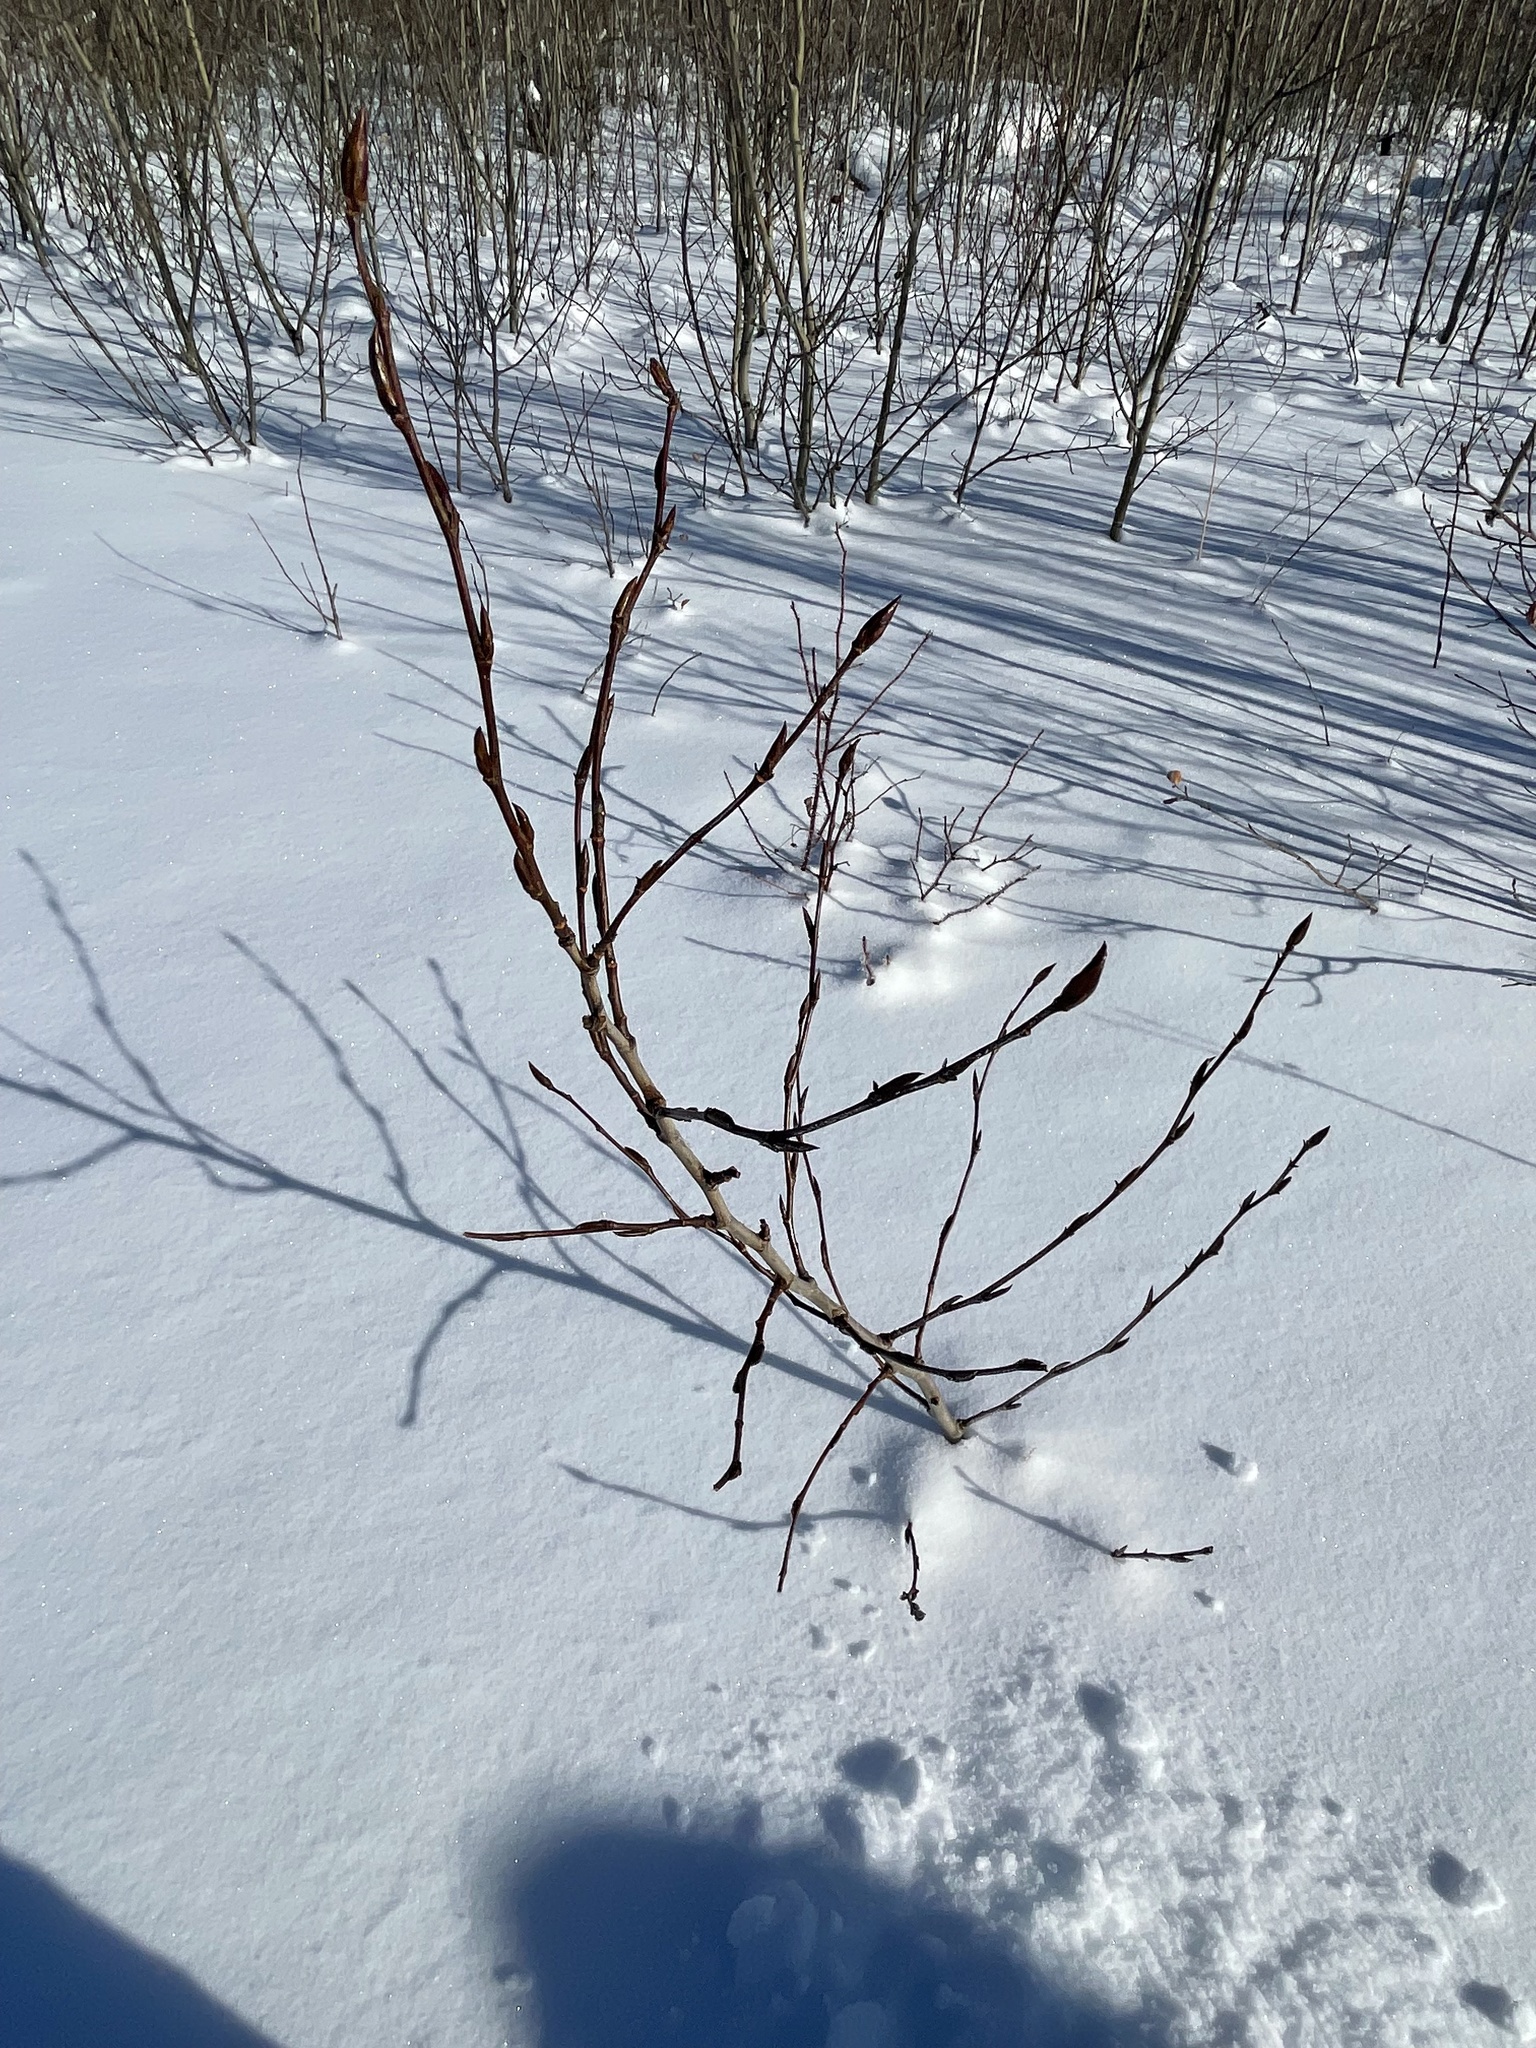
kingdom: Plantae
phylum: Tracheophyta
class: Magnoliopsida
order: Malpighiales
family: Salicaceae
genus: Populus
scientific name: Populus balsamifera
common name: Balsam poplar
